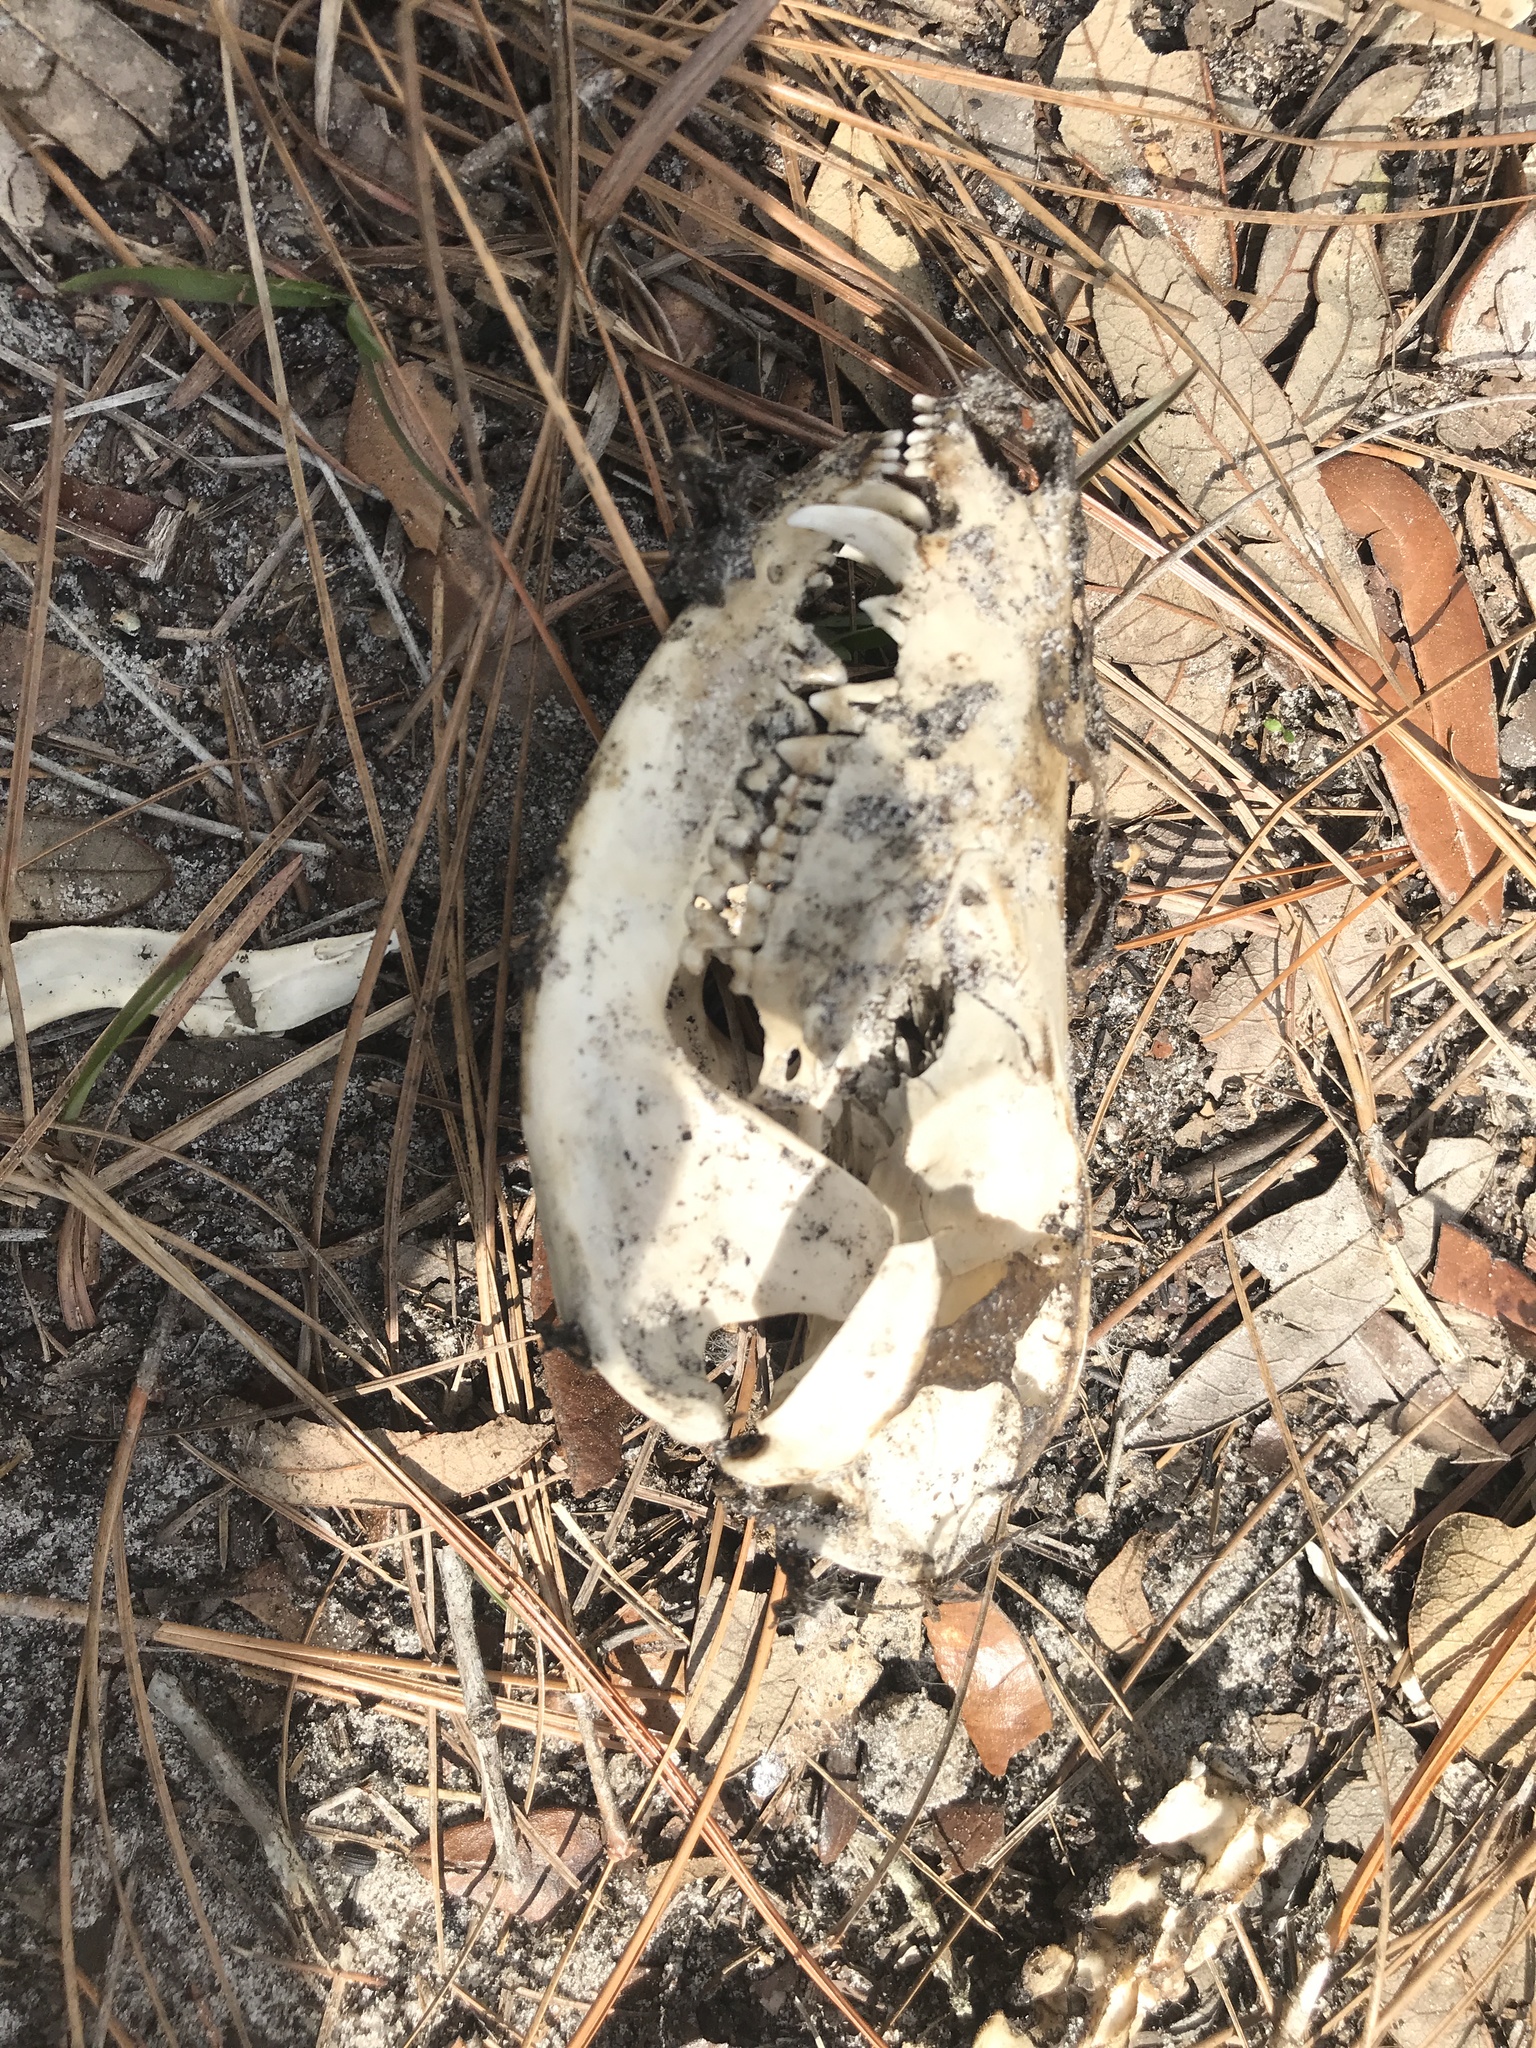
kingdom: Animalia
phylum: Chordata
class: Mammalia
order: Didelphimorphia
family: Didelphidae
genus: Didelphis
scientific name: Didelphis virginiana
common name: Virginia opossum
